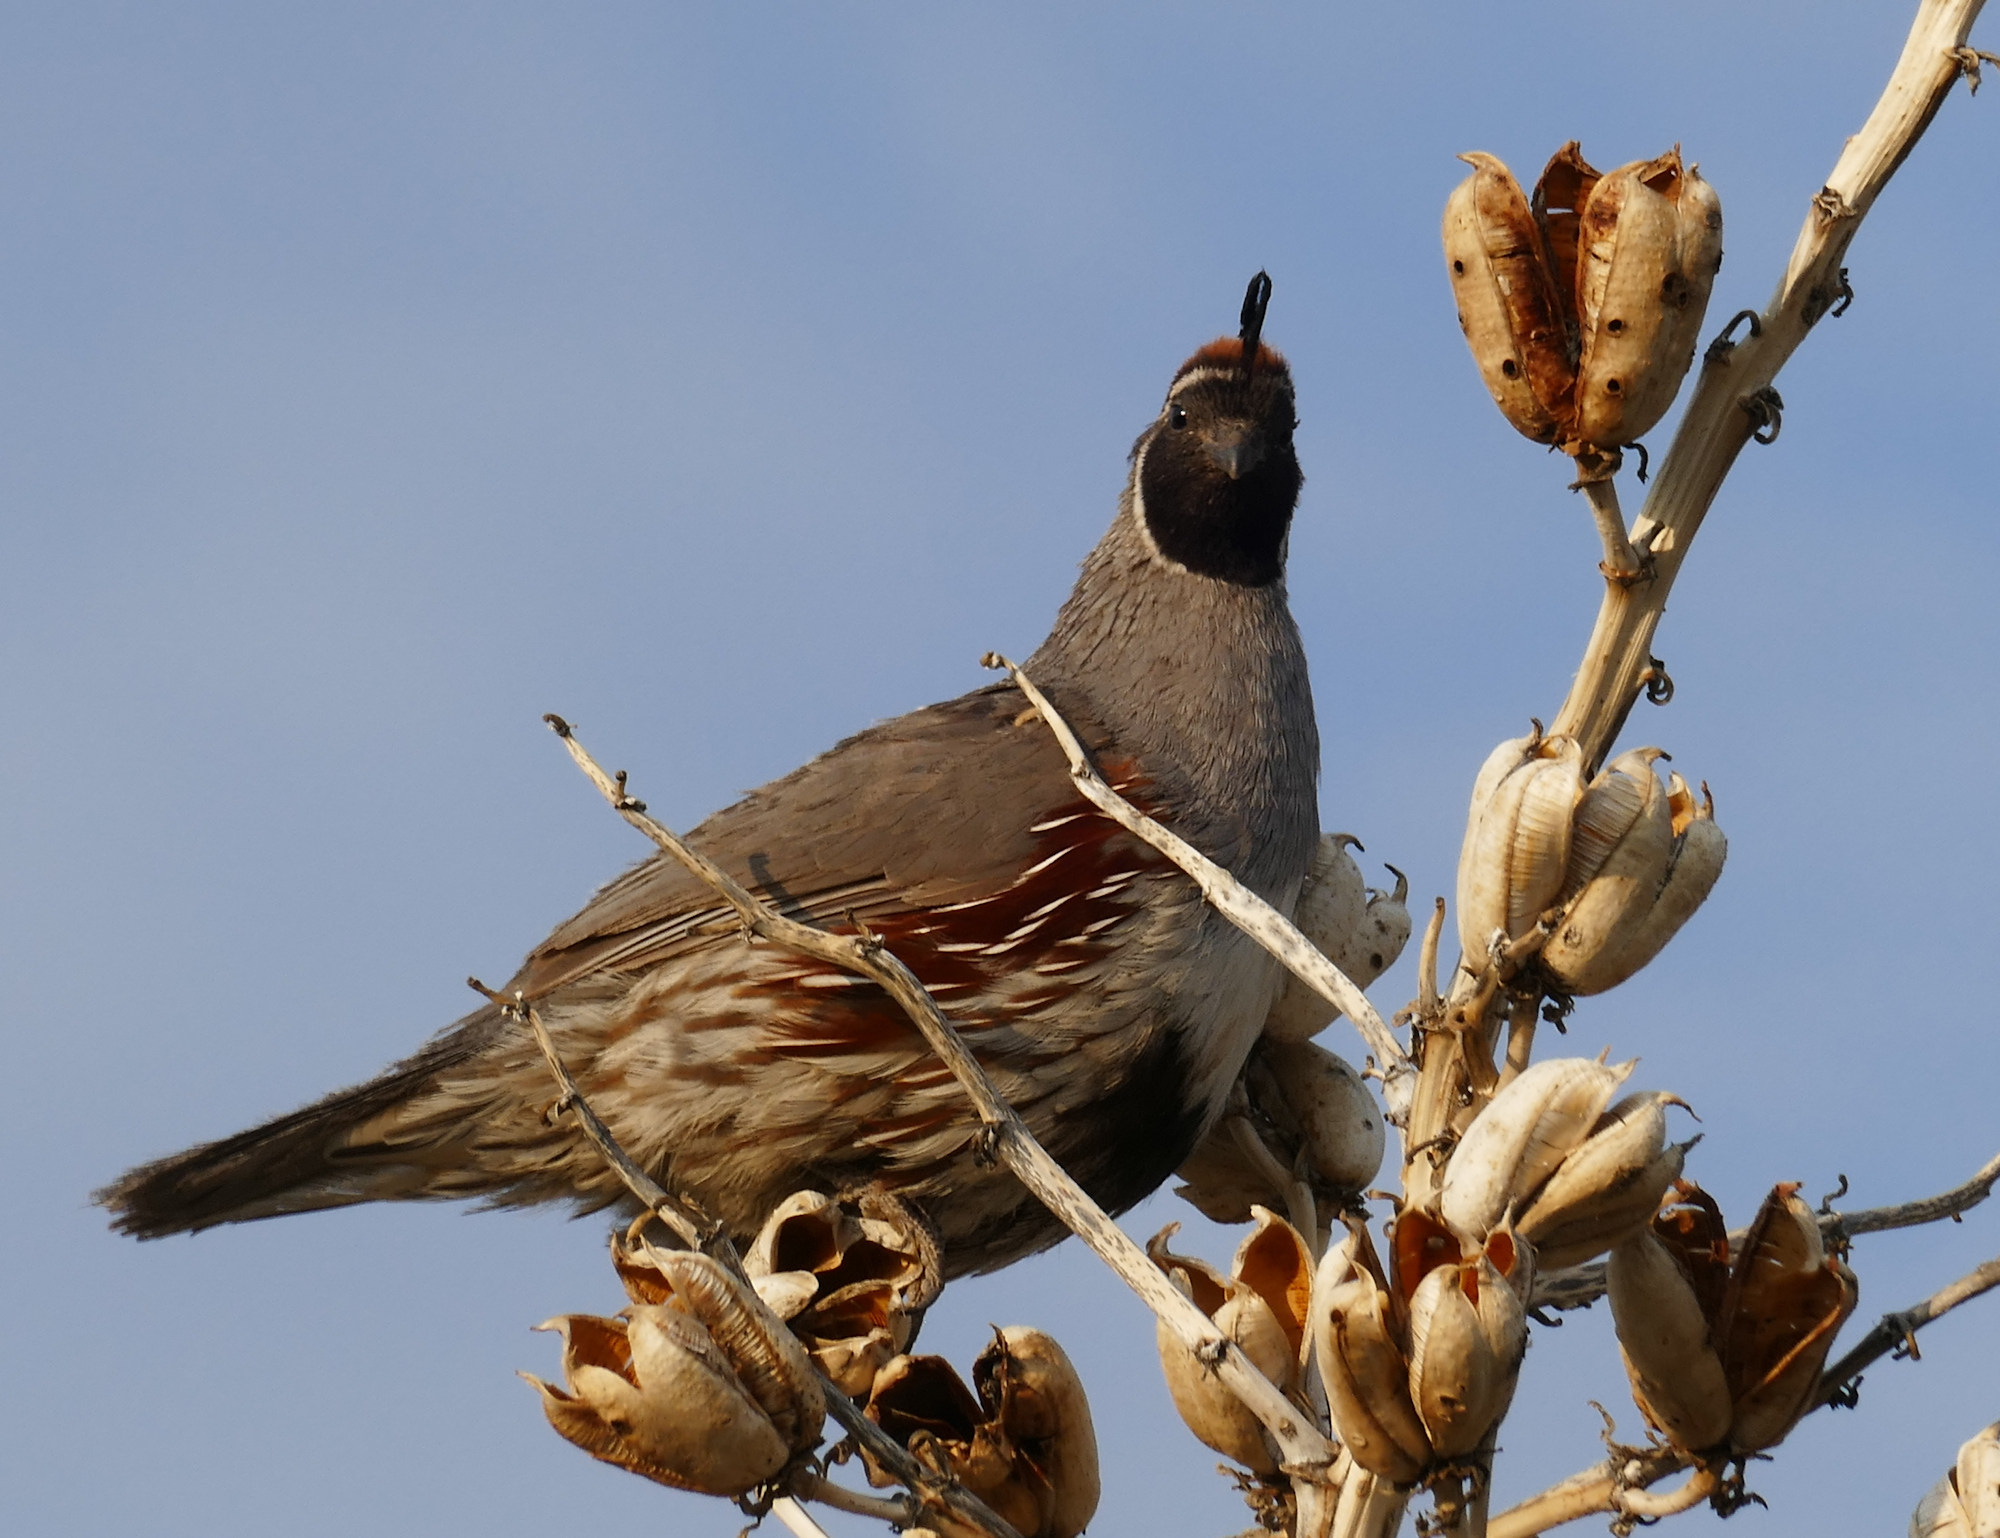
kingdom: Animalia
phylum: Chordata
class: Aves
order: Galliformes
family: Odontophoridae
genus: Callipepla
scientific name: Callipepla gambelii
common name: Gambel's quail
